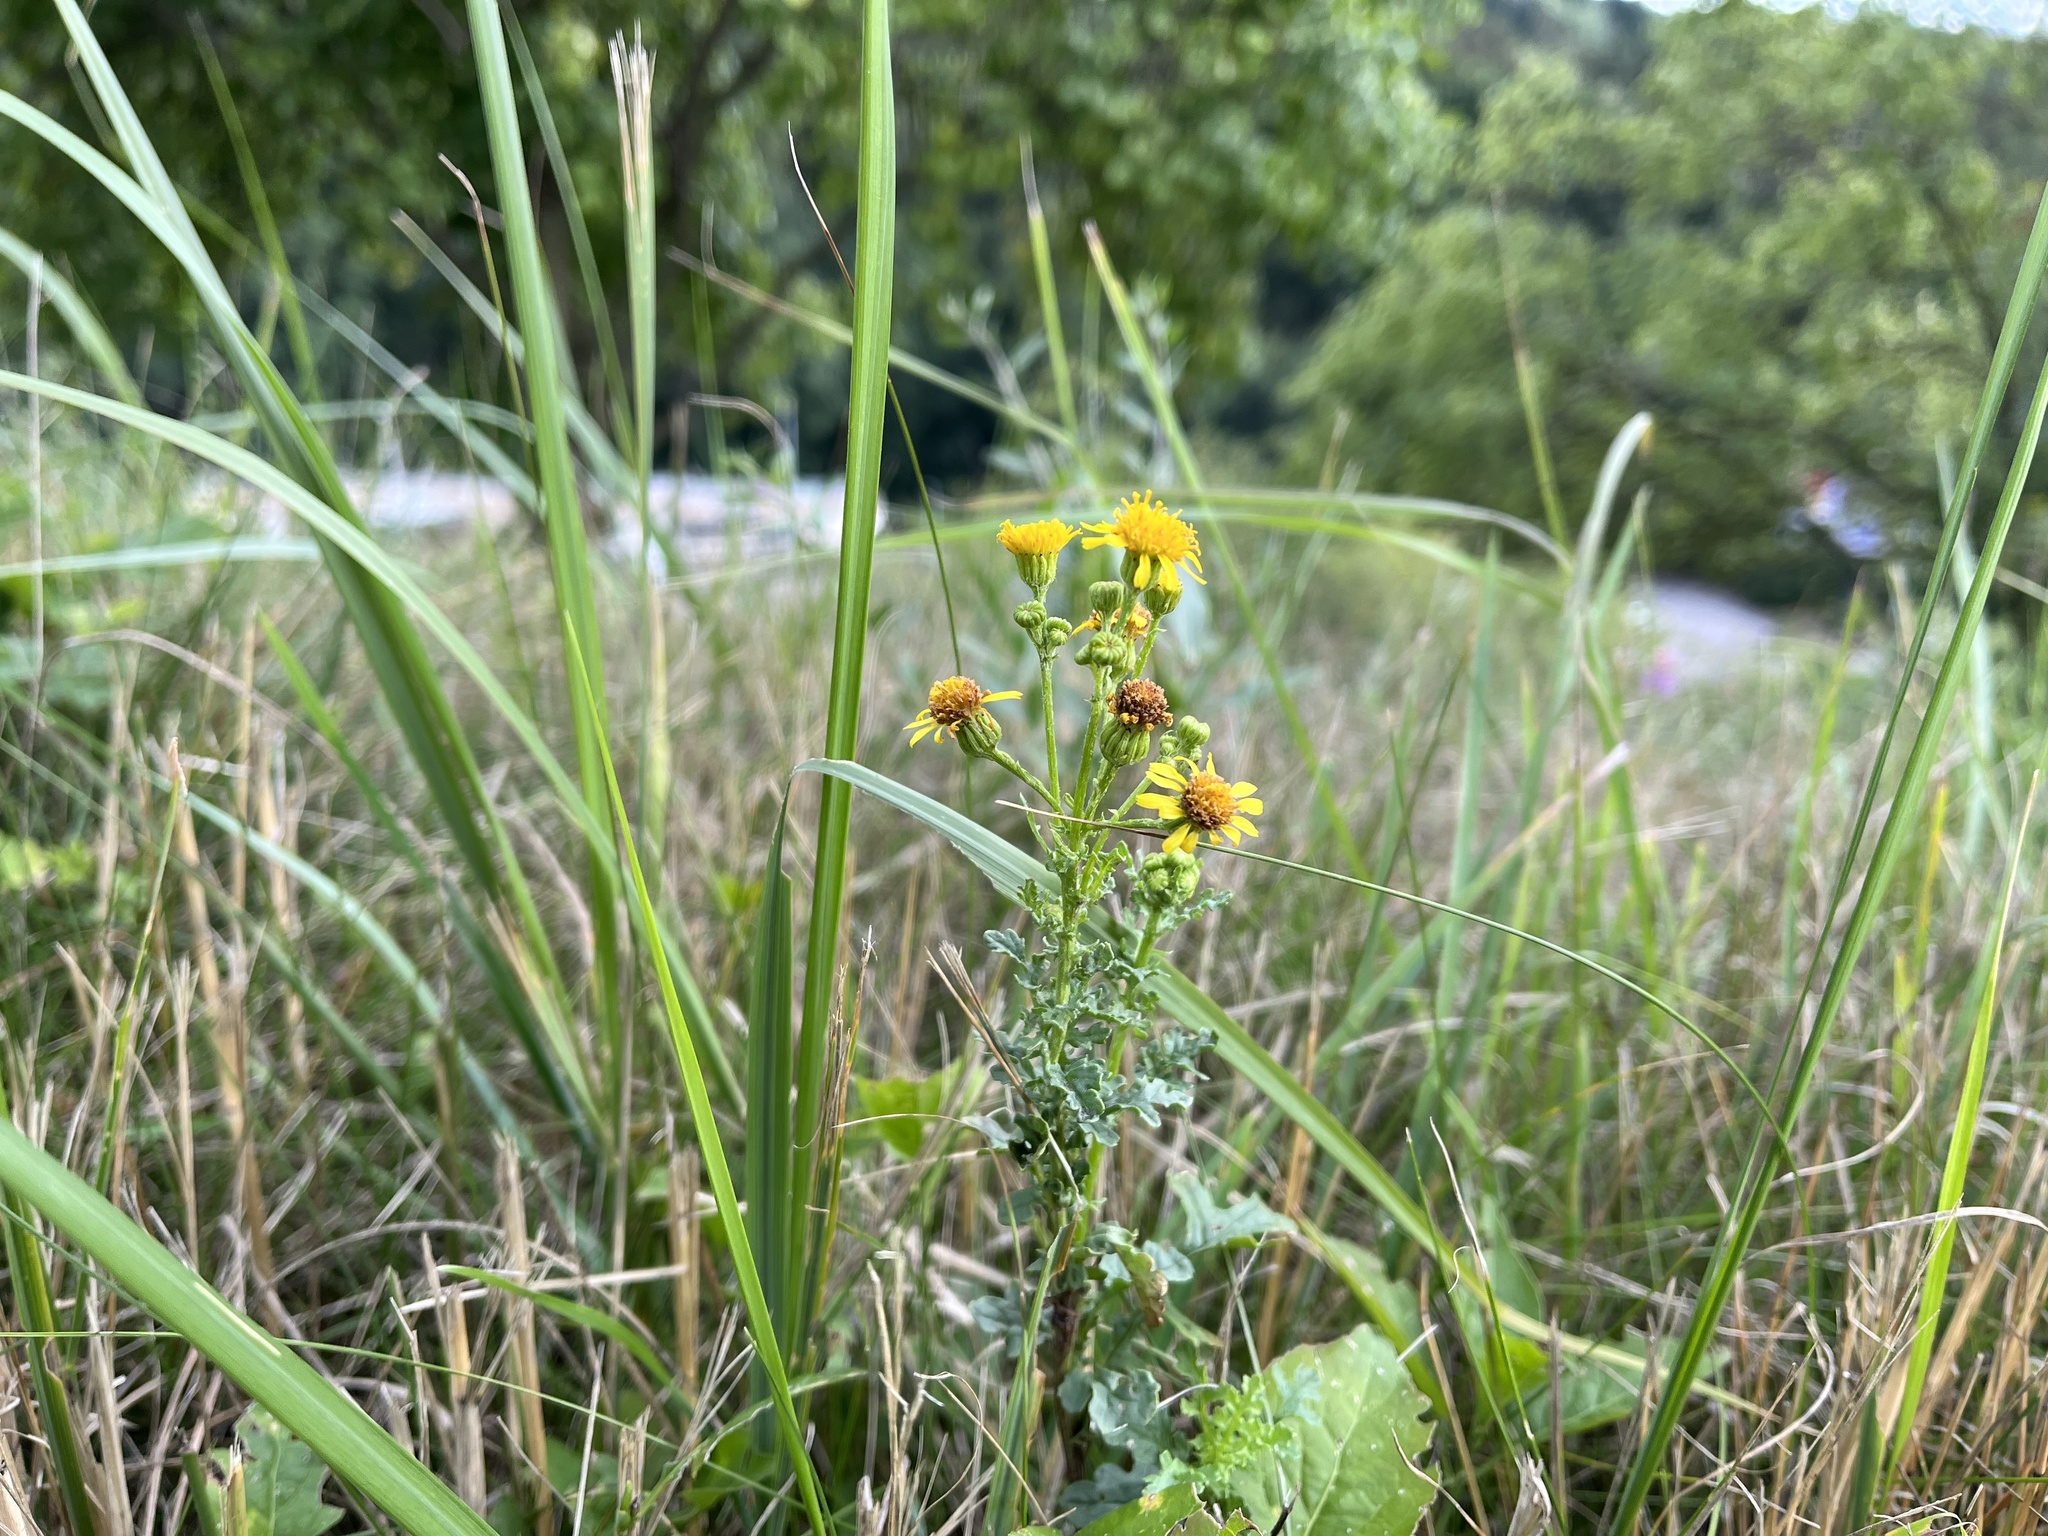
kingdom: Plantae
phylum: Tracheophyta
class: Magnoliopsida
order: Asterales
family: Asteraceae
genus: Jacobaea
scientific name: Jacobaea vulgaris
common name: Stinking willie
